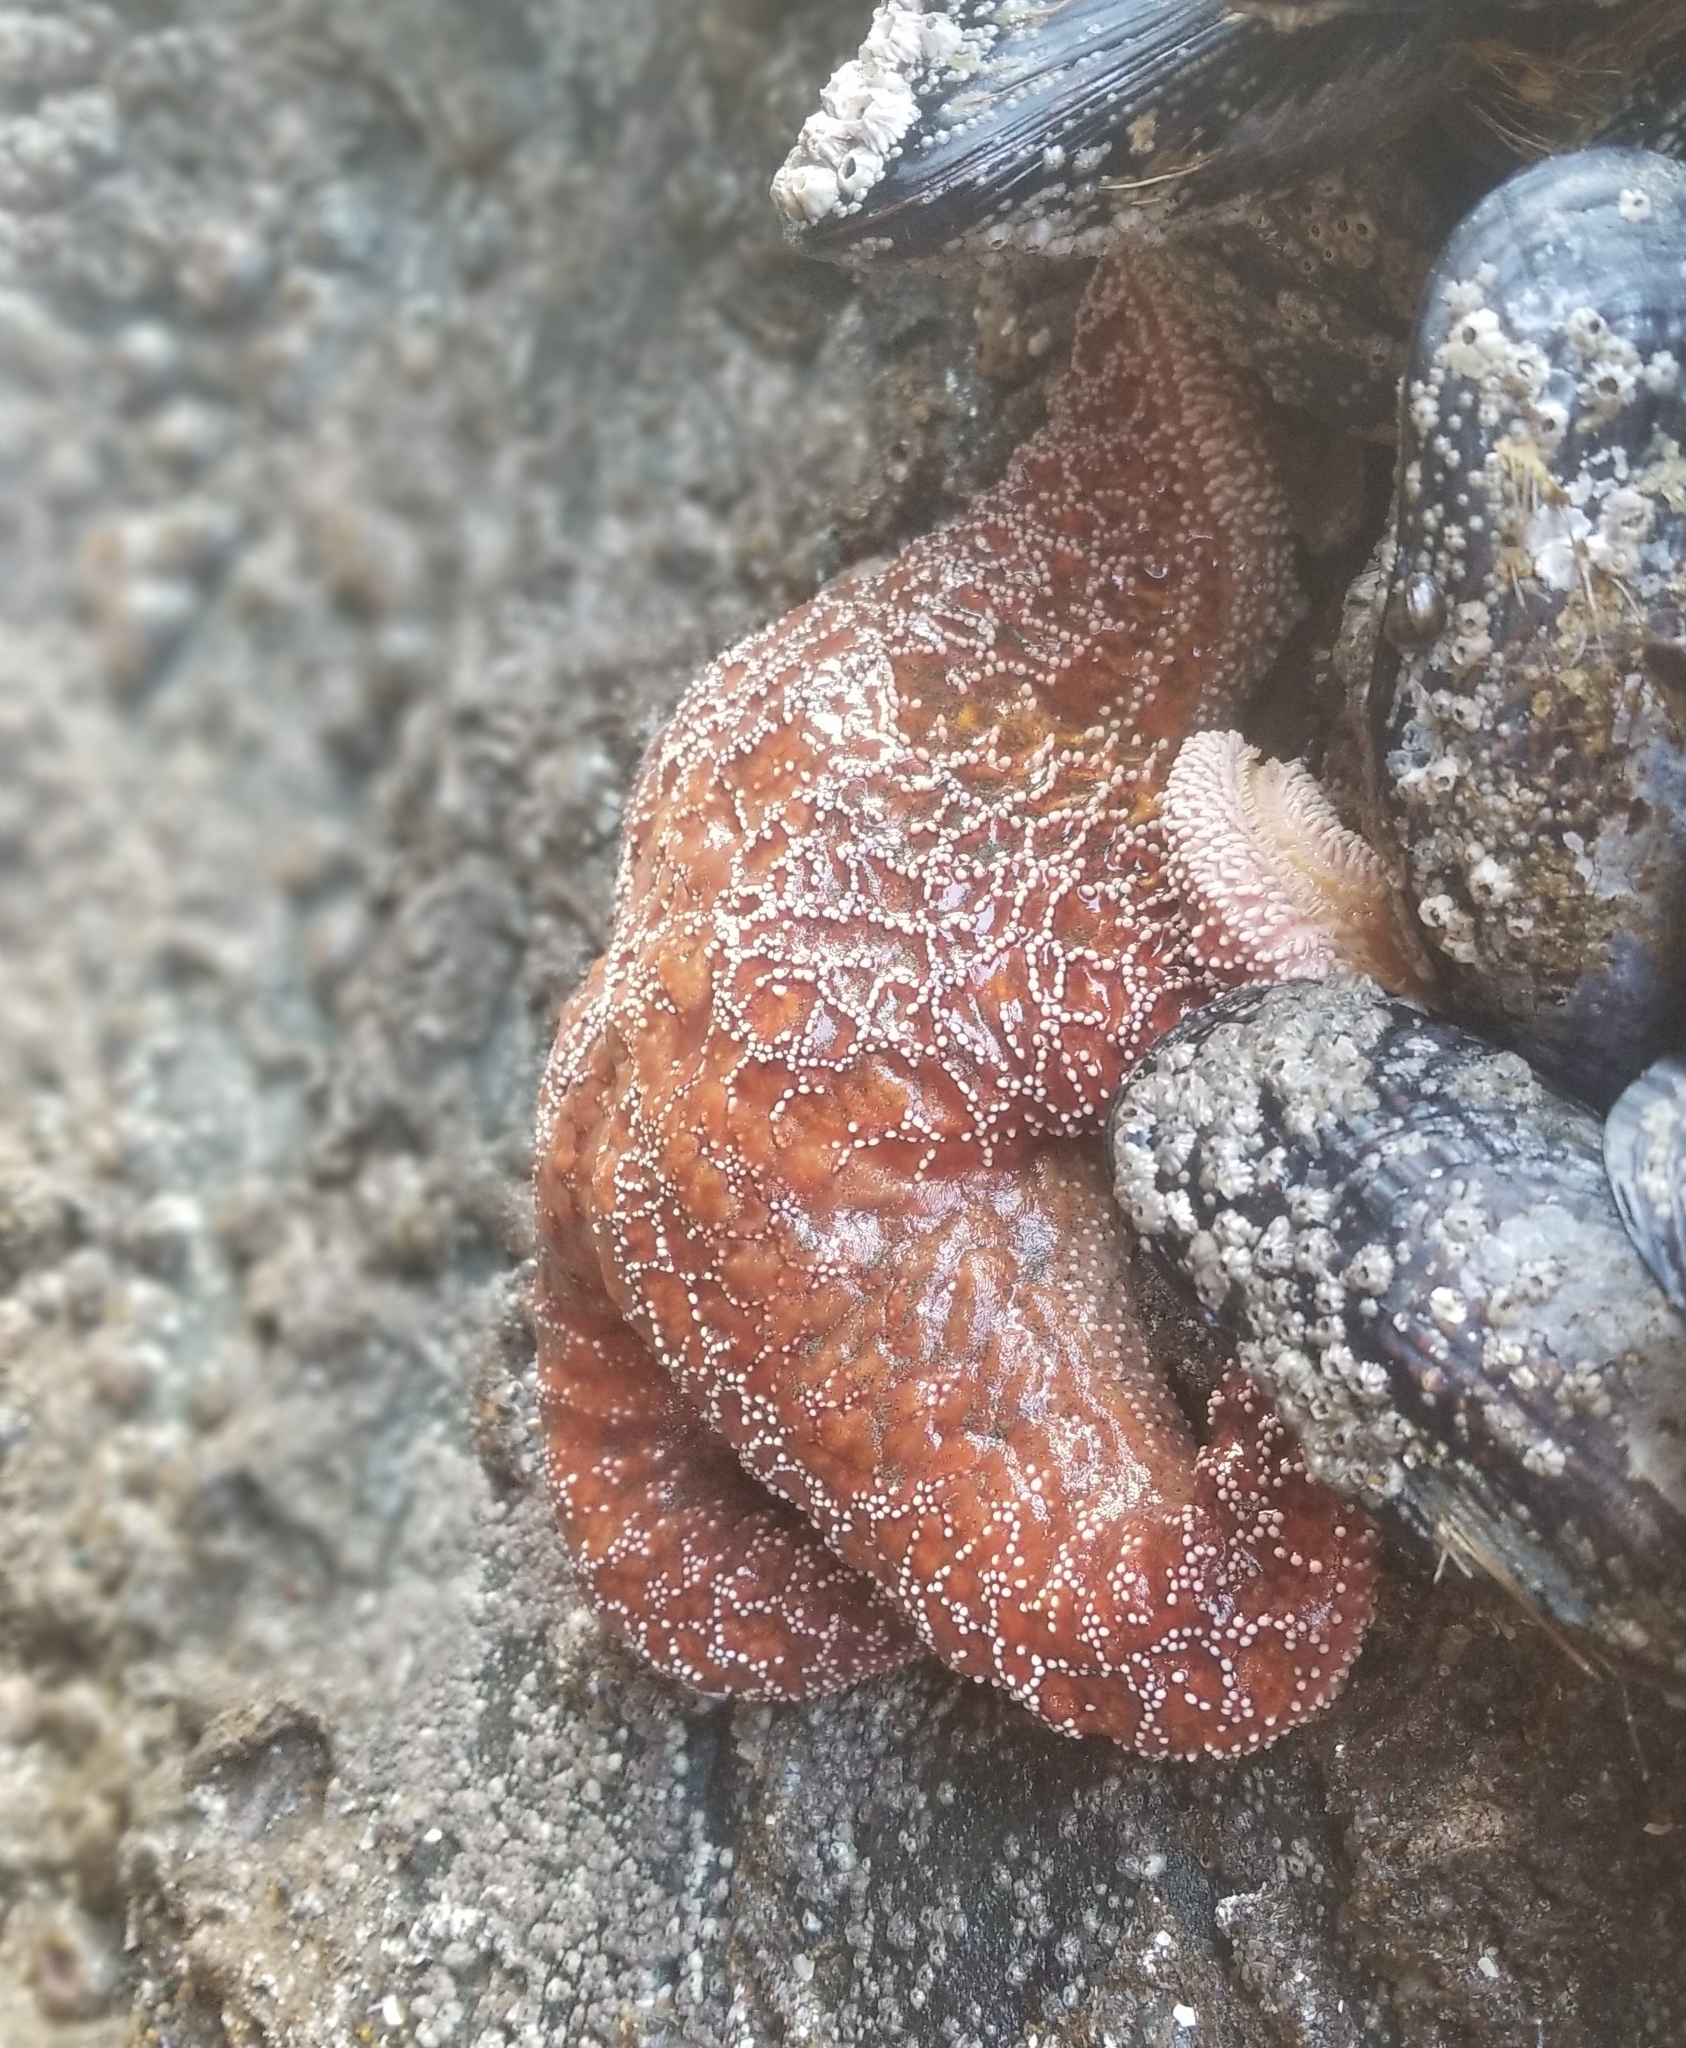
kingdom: Animalia
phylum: Echinodermata
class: Asteroidea
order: Forcipulatida
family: Asteriidae
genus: Pisaster
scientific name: Pisaster ochraceus
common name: Ochre stars
